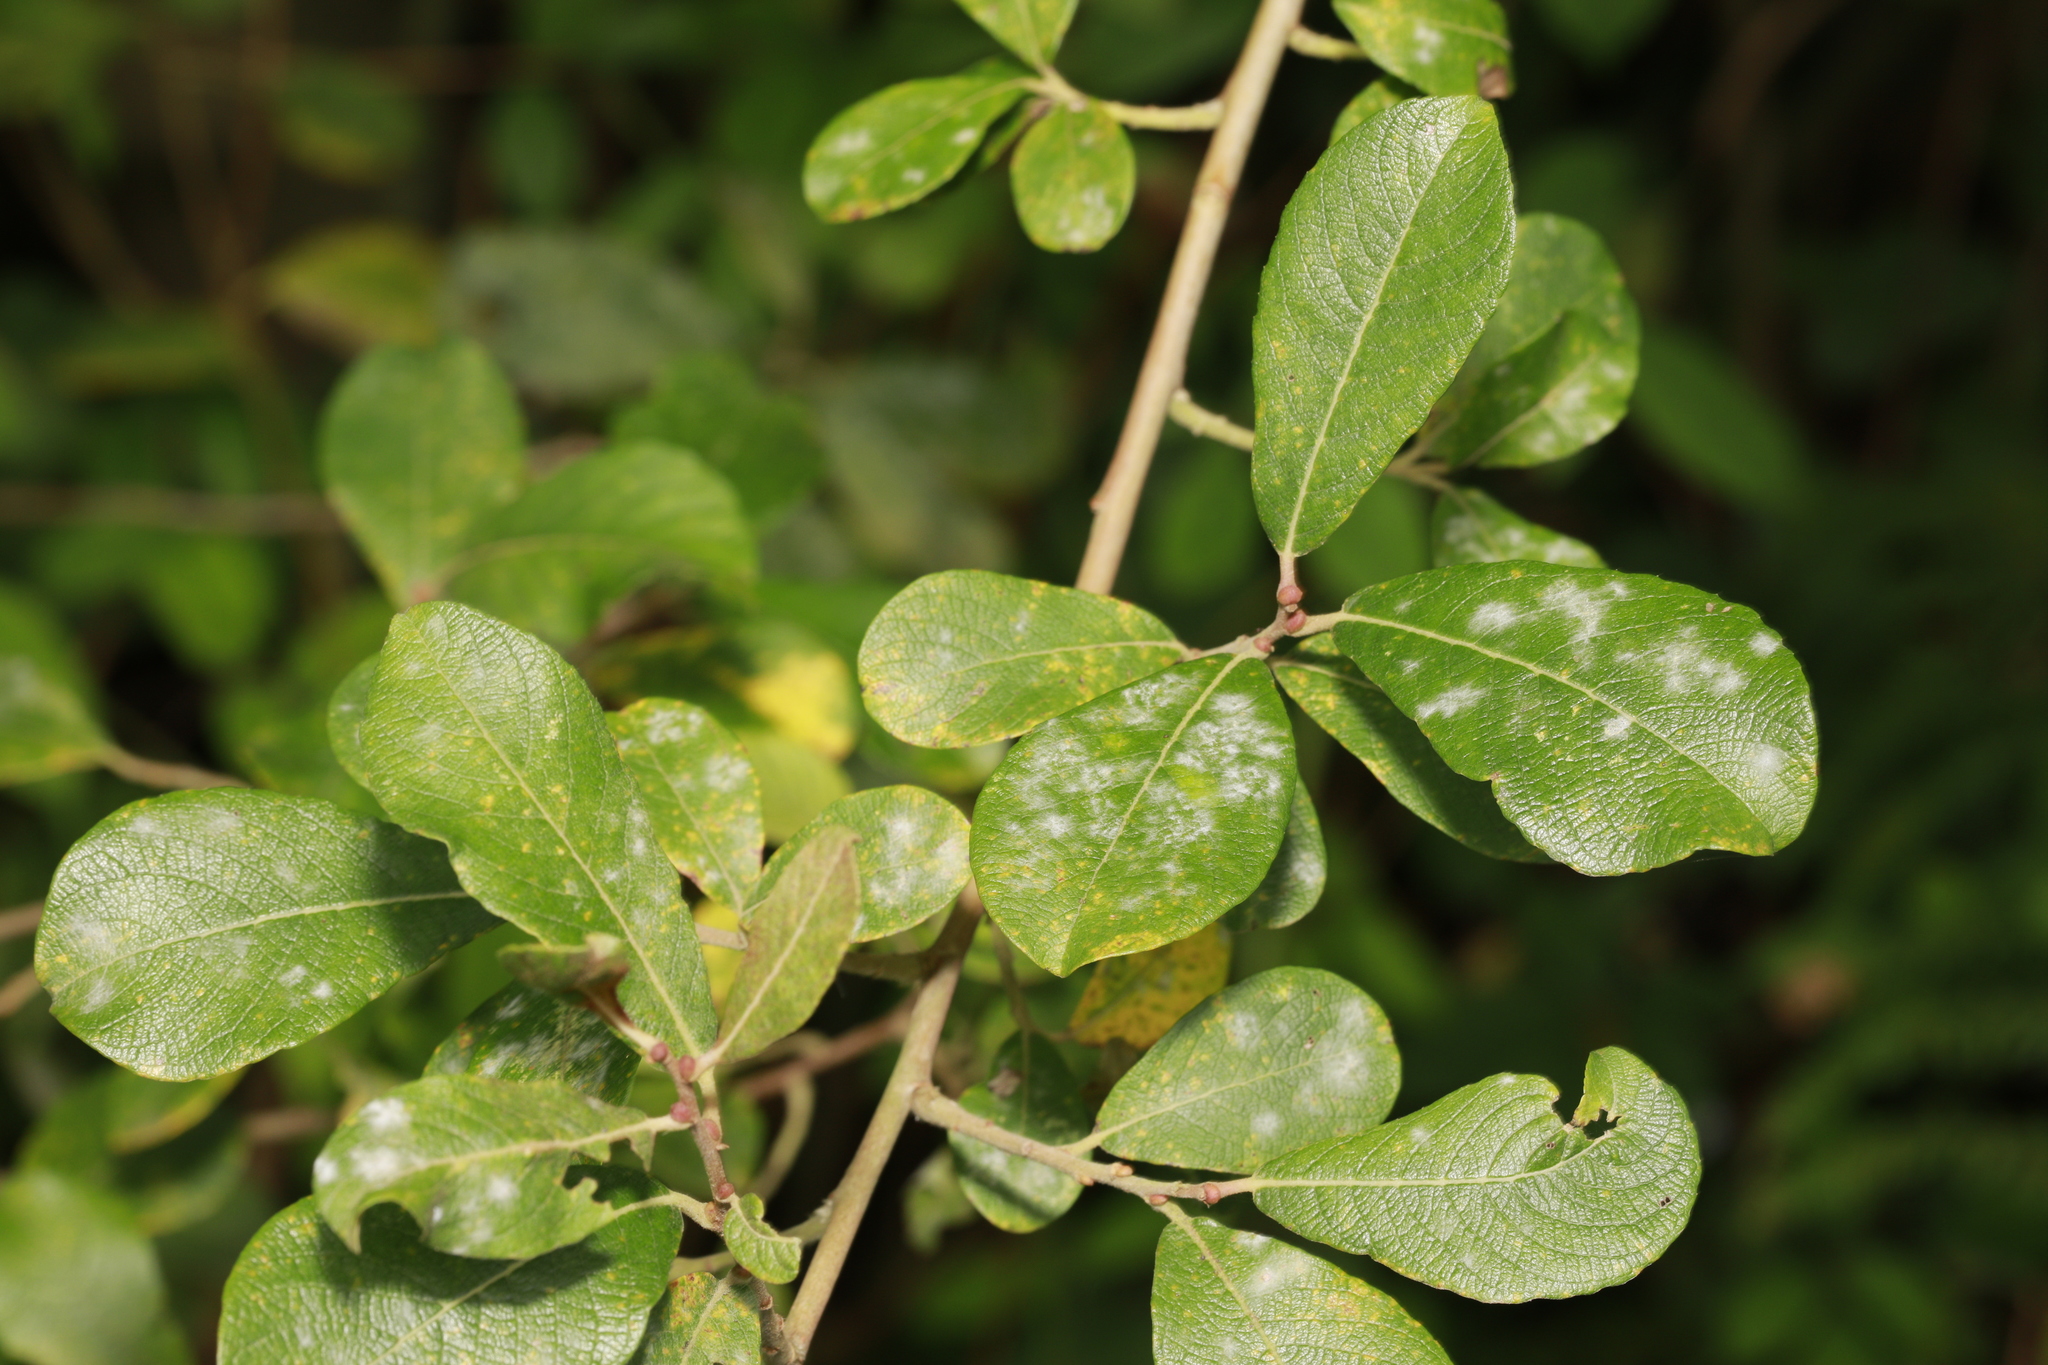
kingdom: Fungi
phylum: Ascomycota
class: Leotiomycetes
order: Helotiales
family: Erysiphaceae
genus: Erysiphe
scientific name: Erysiphe capreae
